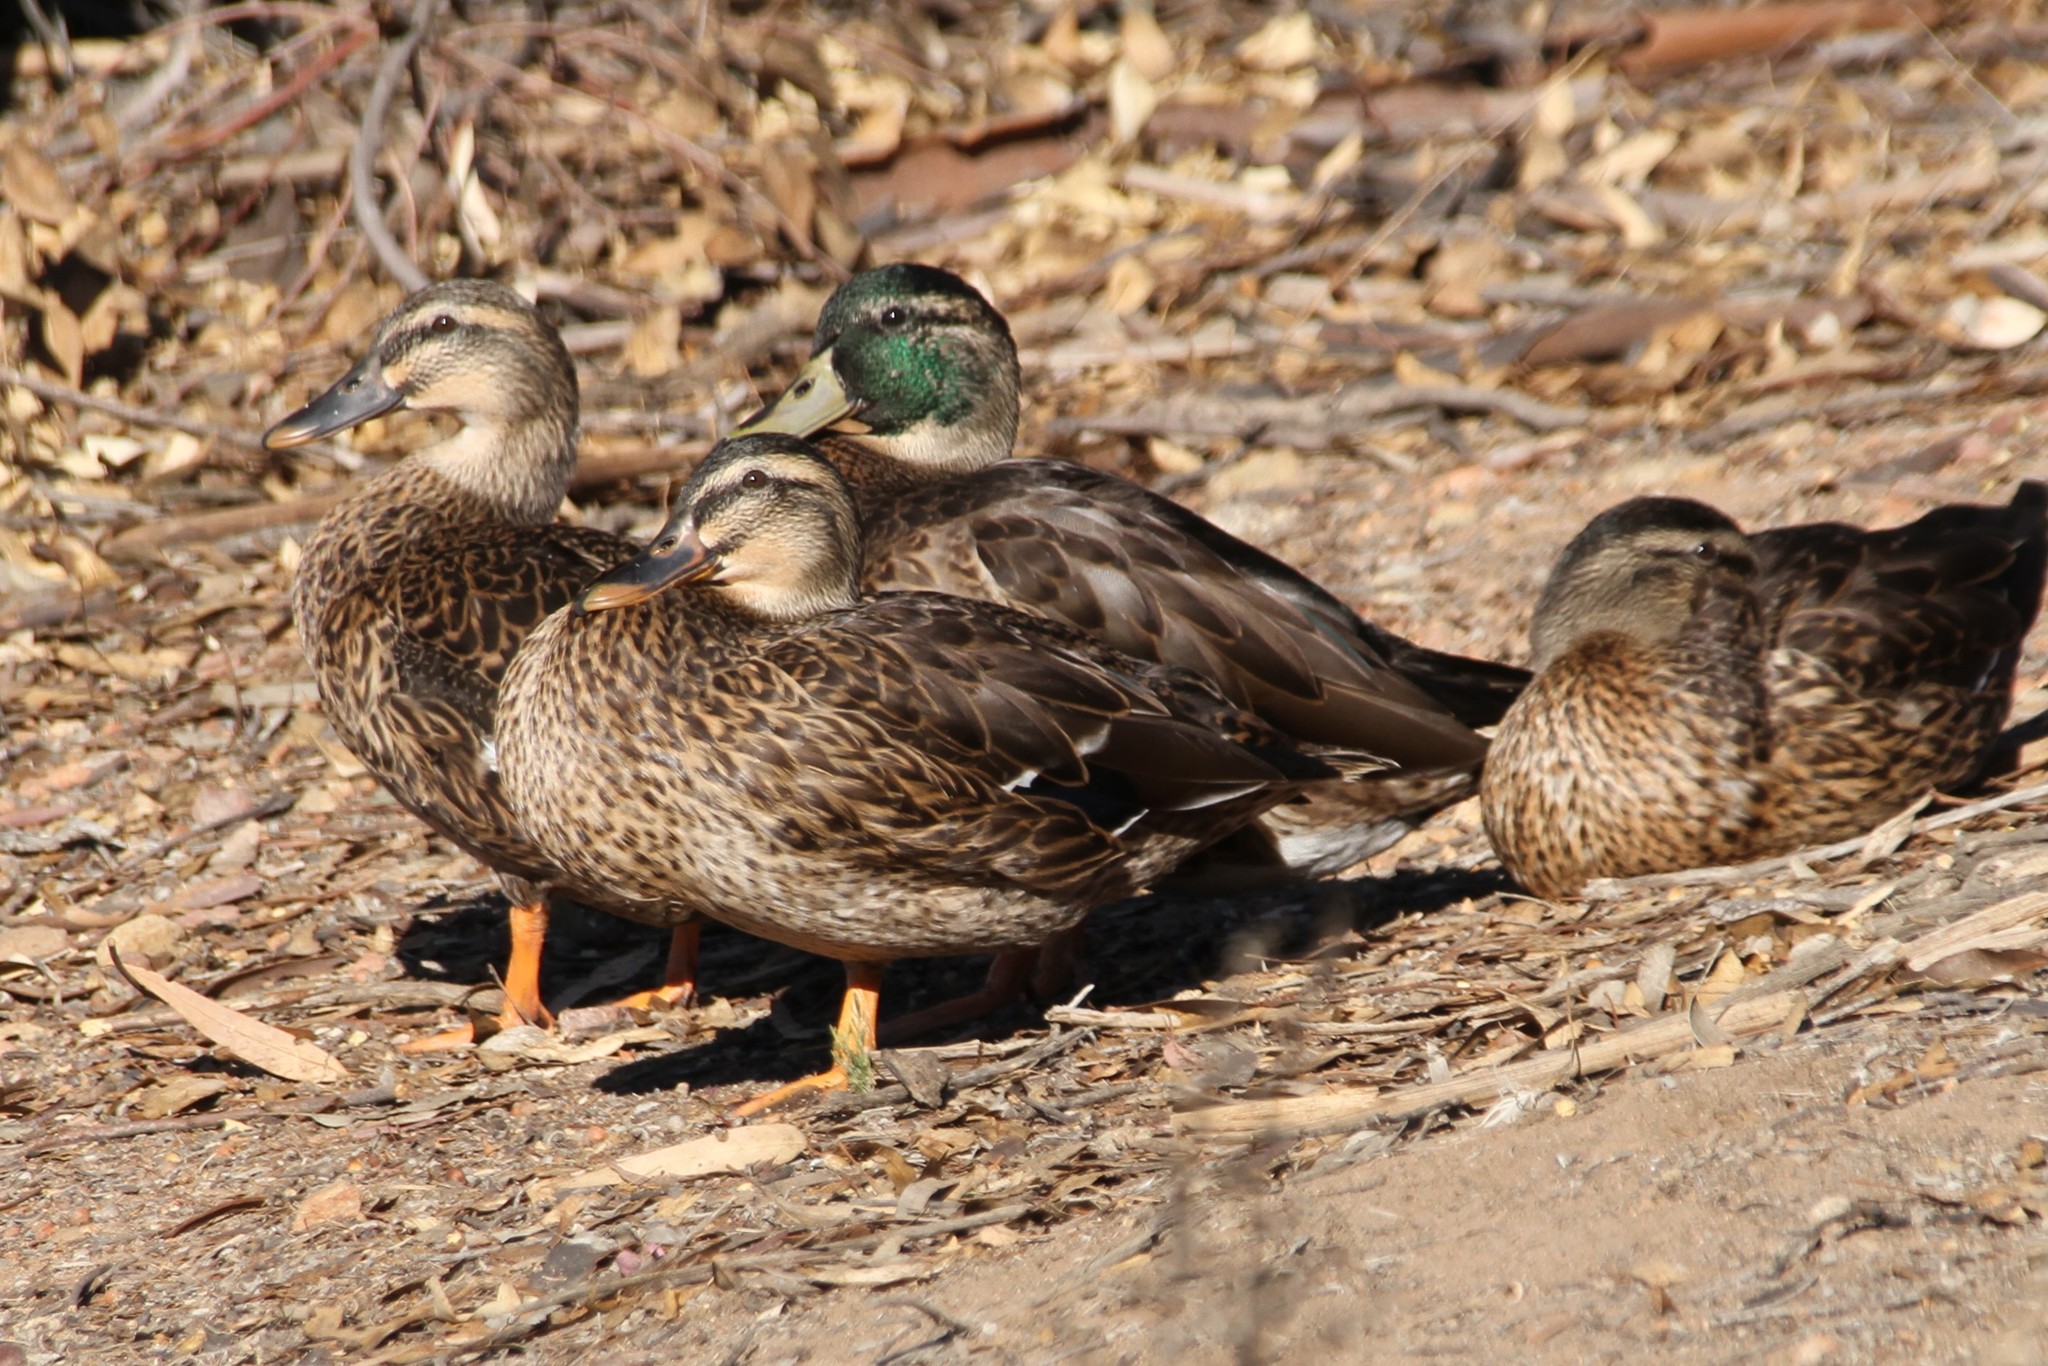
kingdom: Animalia
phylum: Chordata
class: Aves
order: Anseriformes
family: Anatidae
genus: Anas
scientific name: Anas platyrhynchos
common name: Mallard
